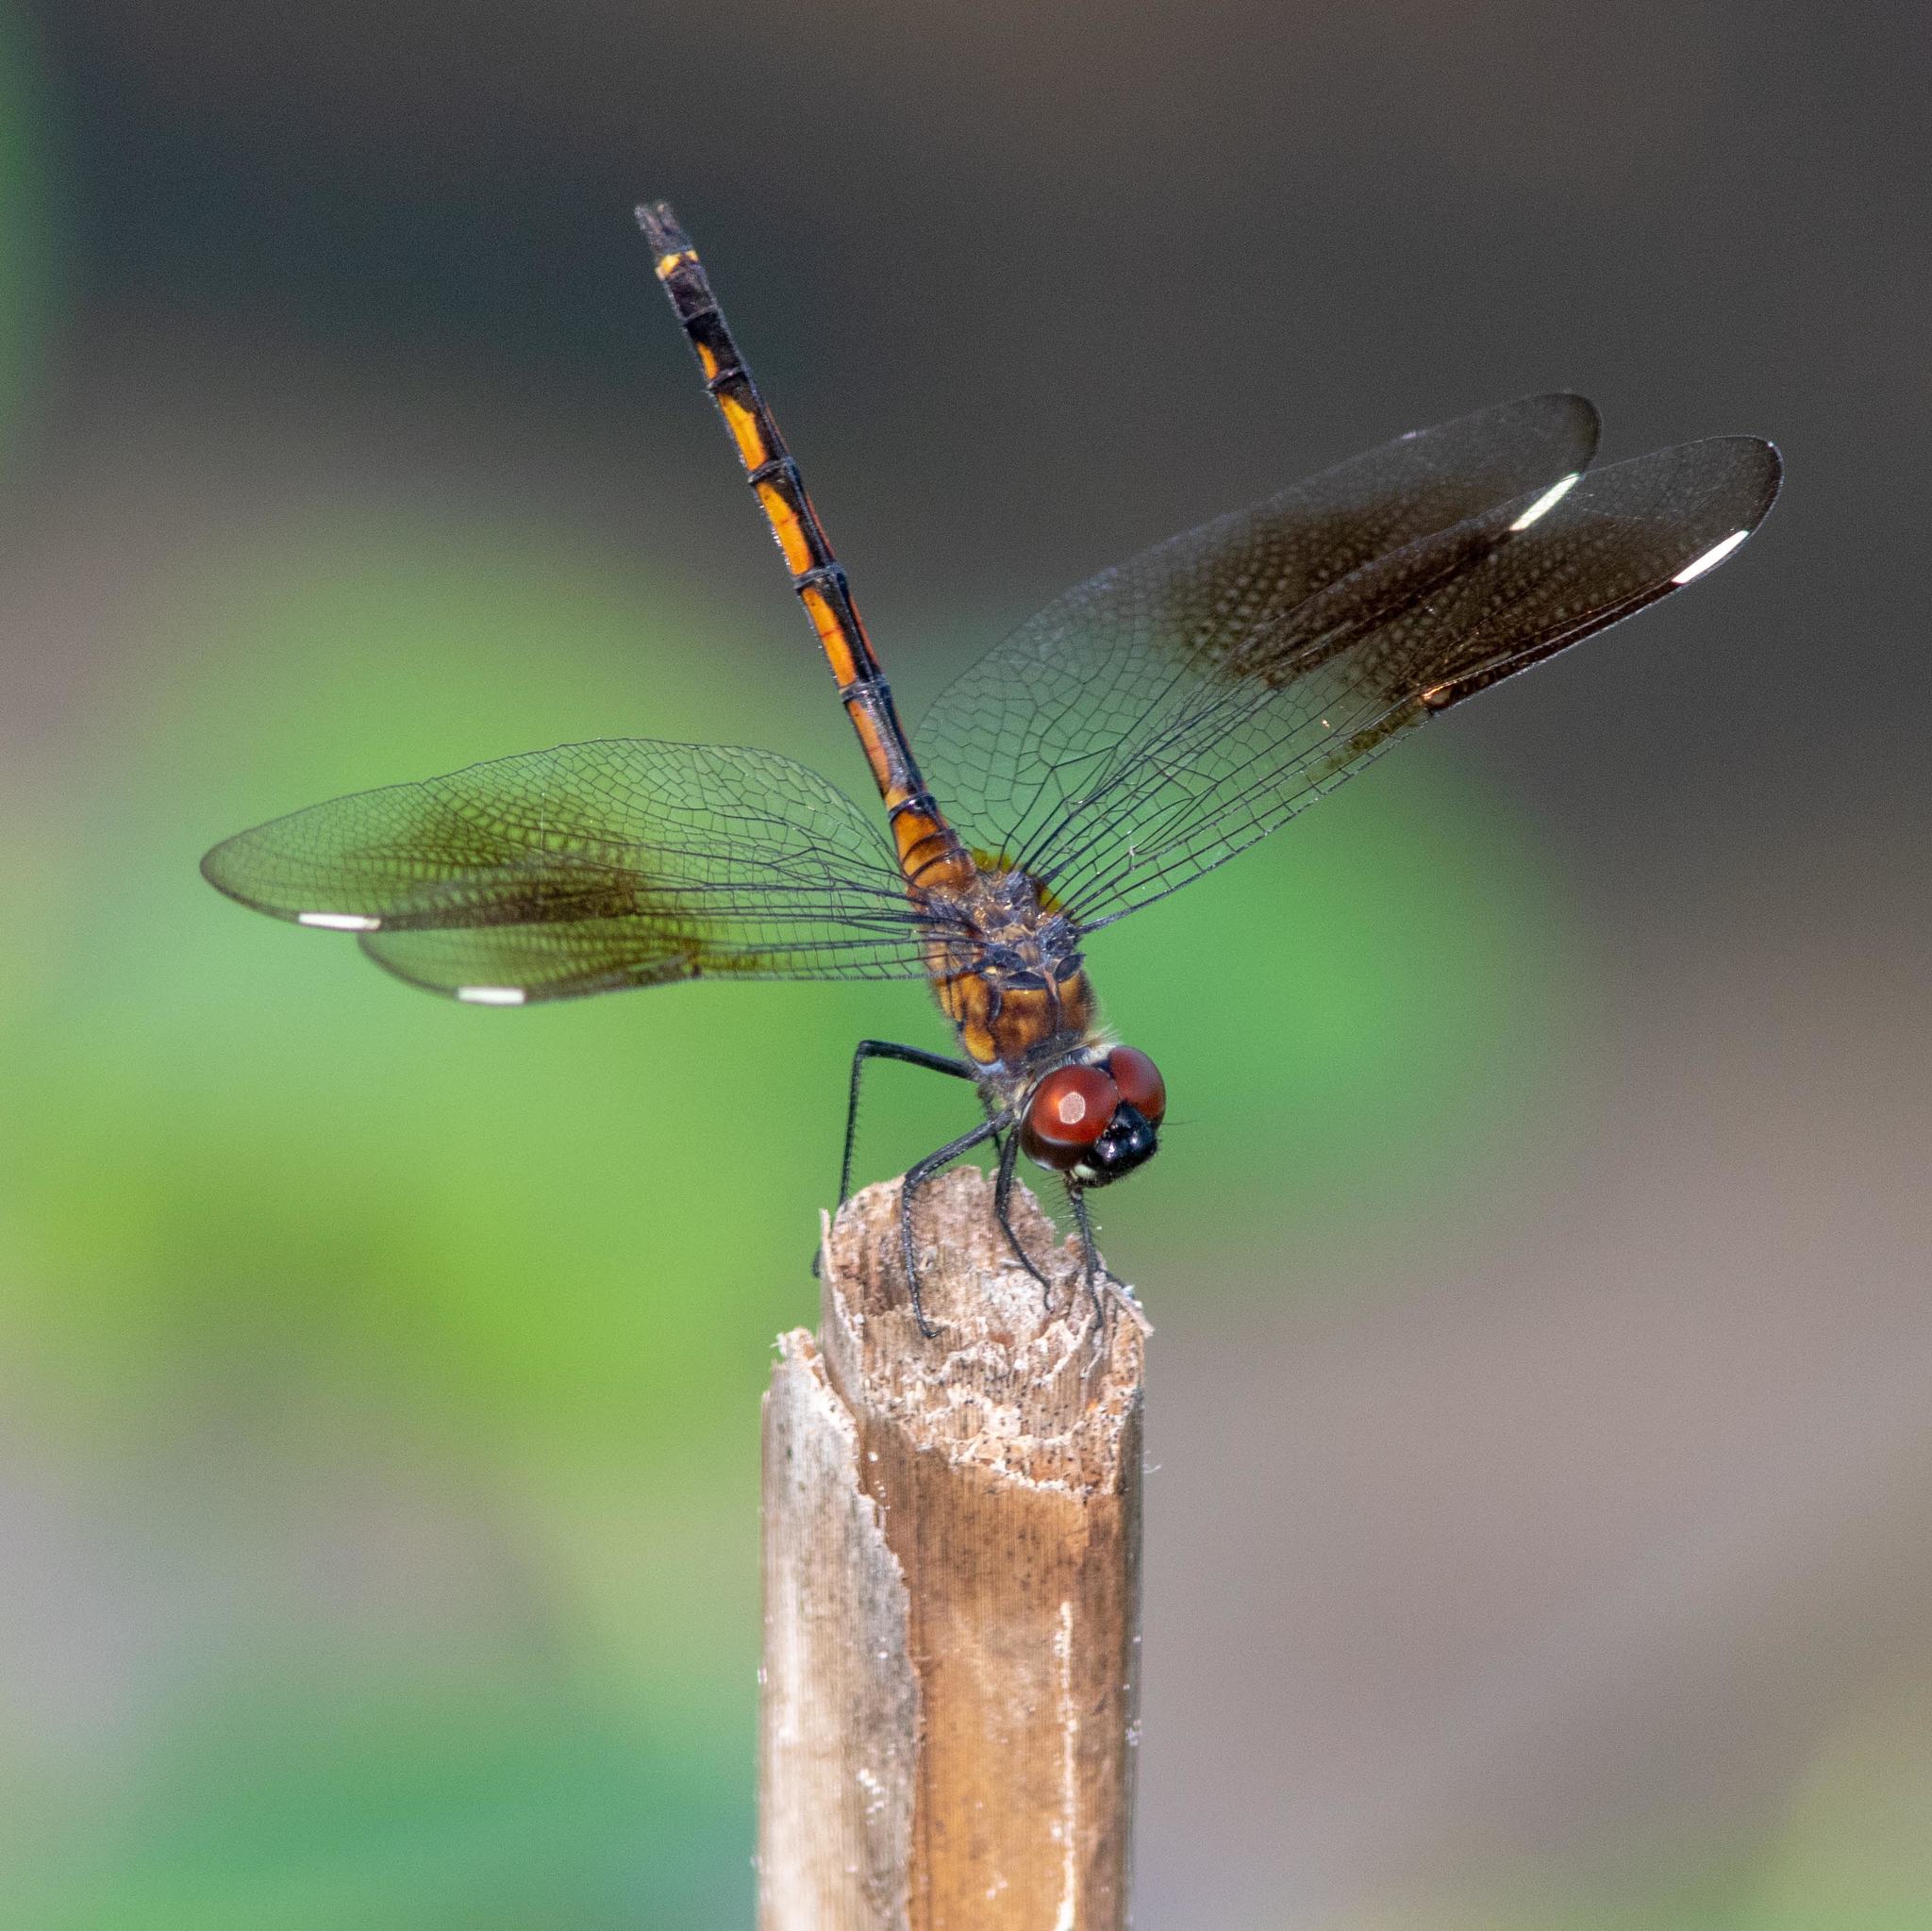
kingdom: Animalia
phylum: Arthropoda
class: Insecta
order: Odonata
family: Libellulidae
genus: Brachymesia
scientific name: Brachymesia gravida
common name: Four-spotted pennant
